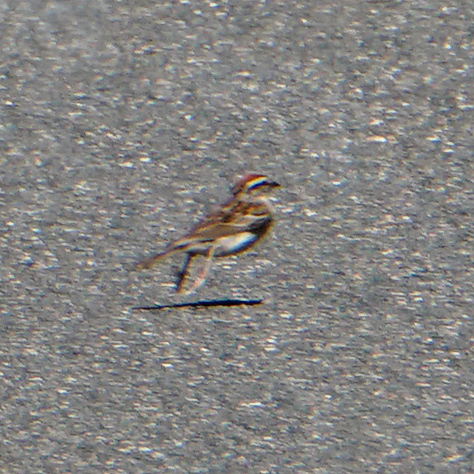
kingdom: Animalia
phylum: Chordata
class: Aves
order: Passeriformes
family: Passerellidae
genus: Spizella
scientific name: Spizella passerina
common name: Chipping sparrow
